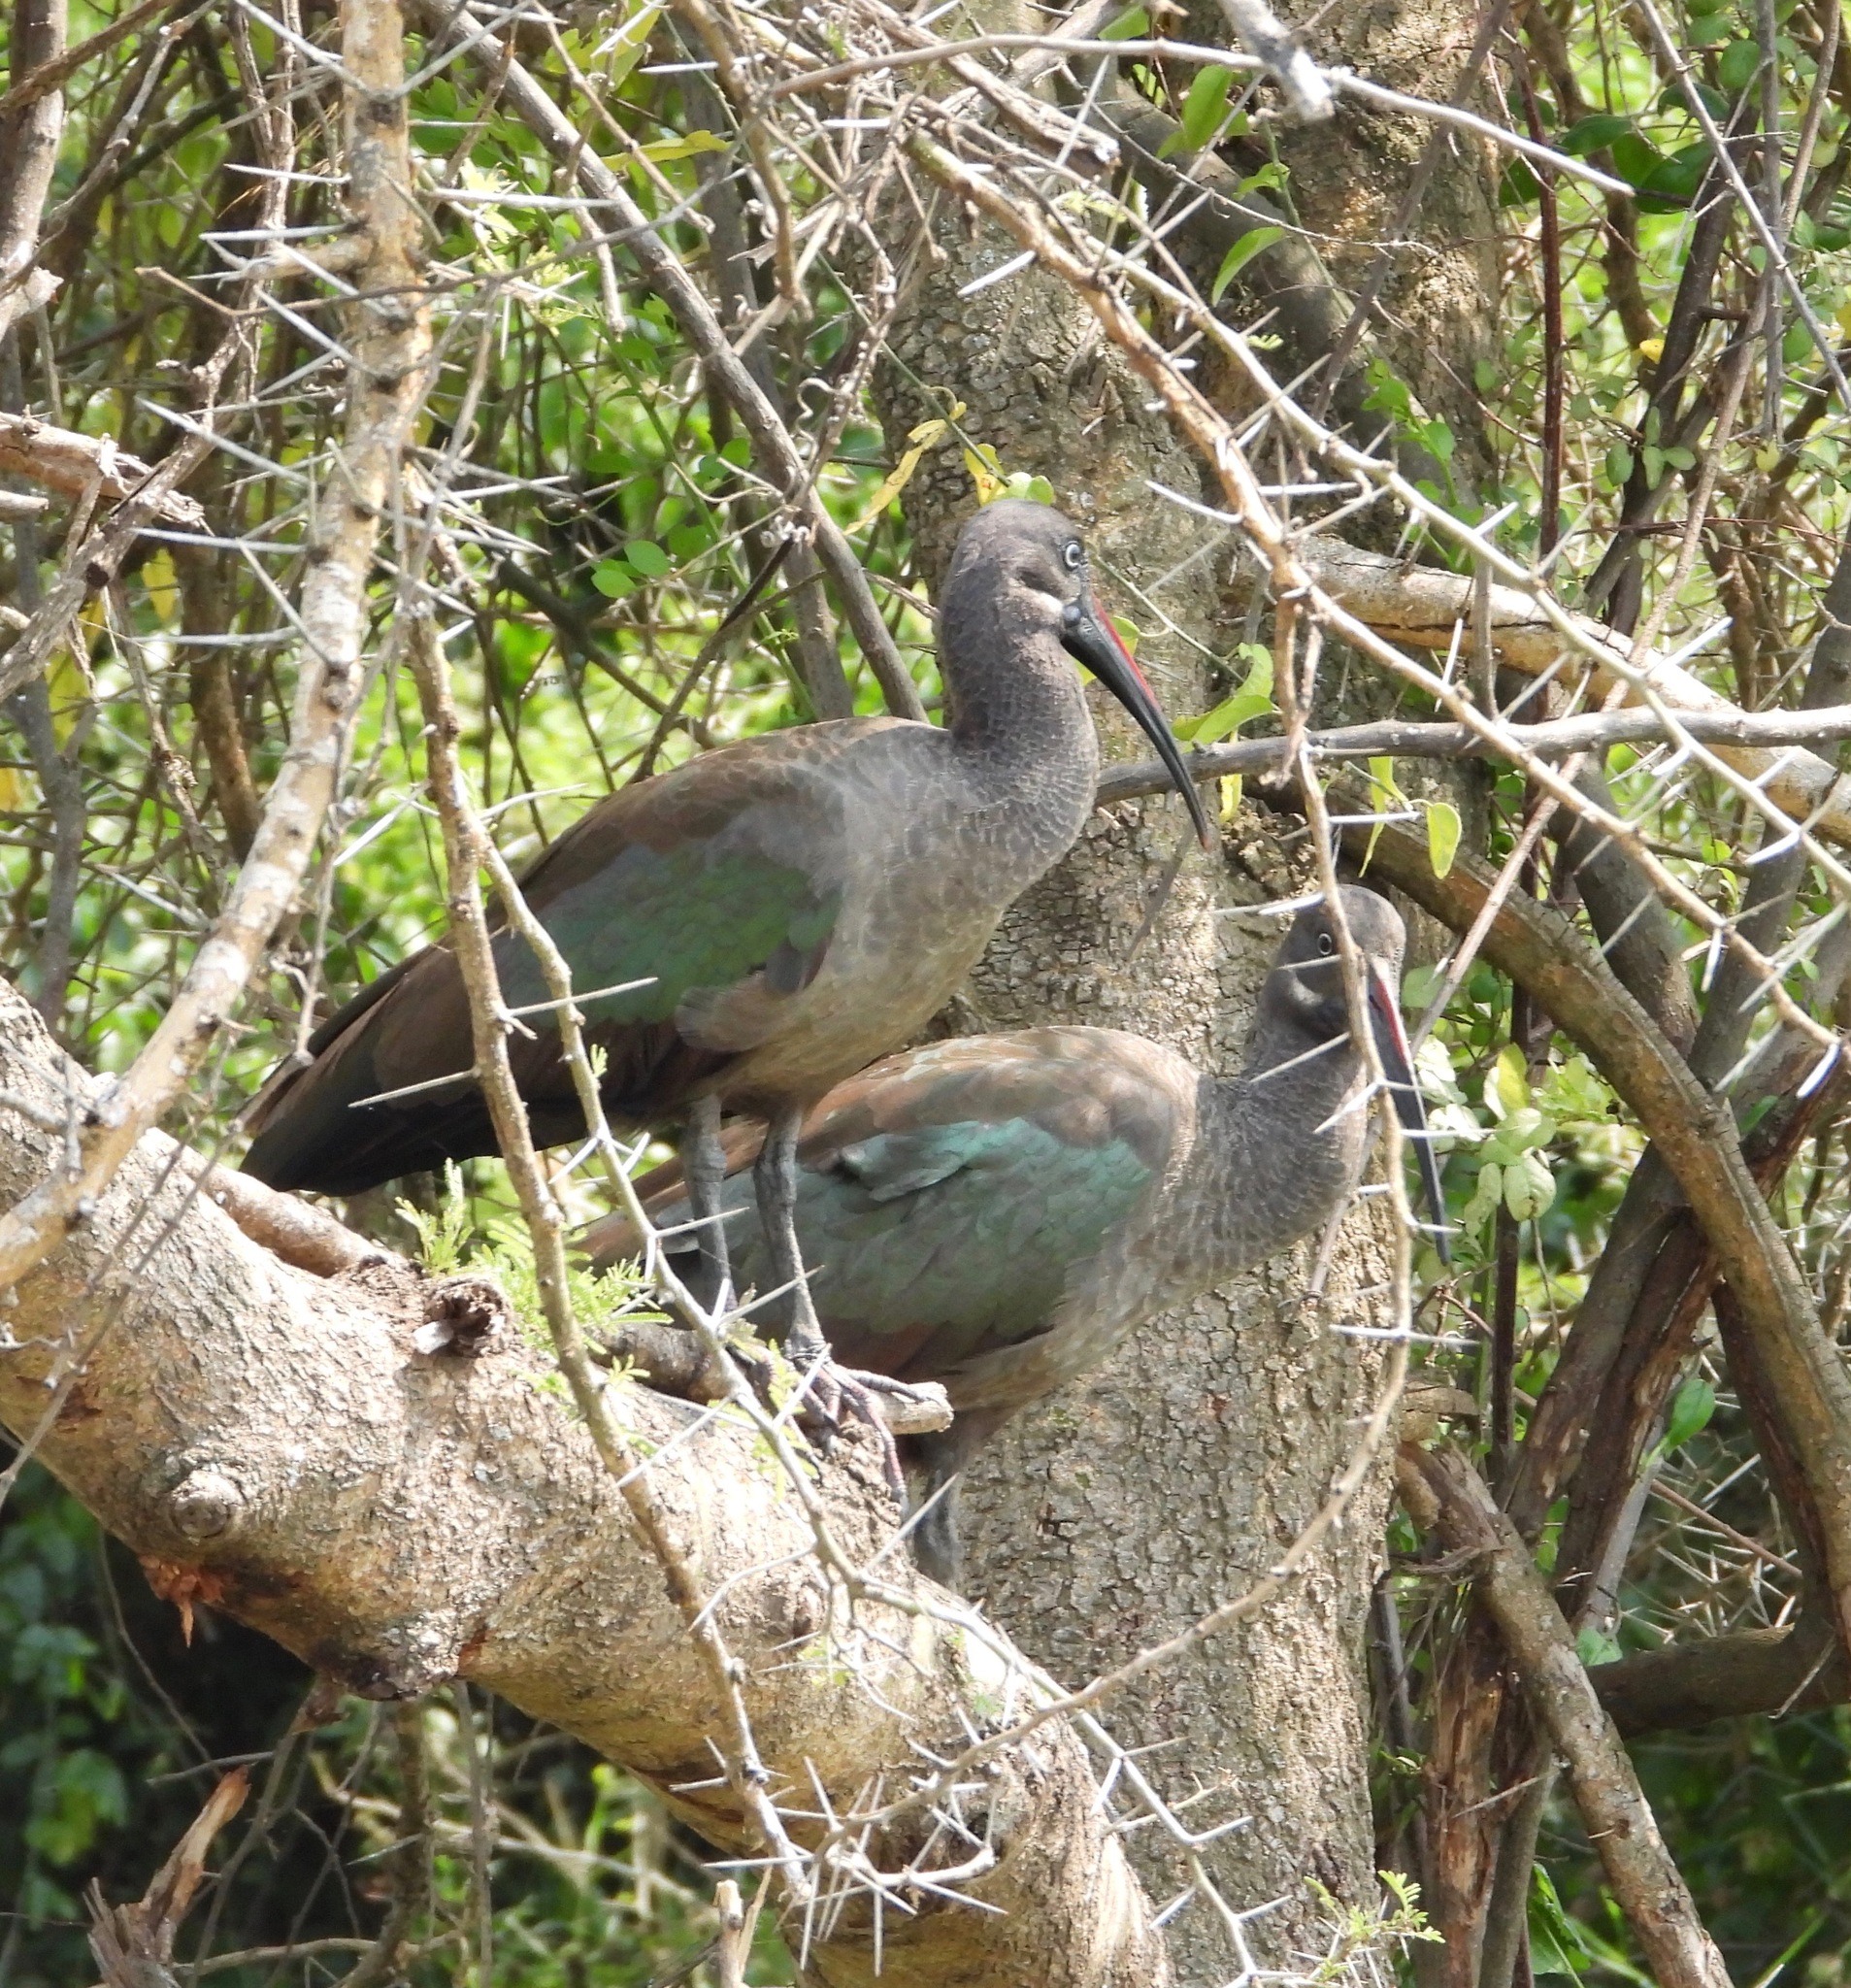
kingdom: Animalia
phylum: Chordata
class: Aves
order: Pelecaniformes
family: Threskiornithidae
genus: Bostrychia
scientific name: Bostrychia hagedash
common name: Hadada ibis
